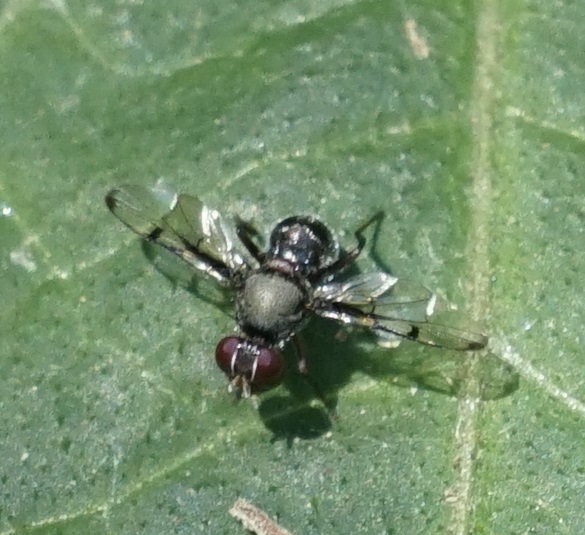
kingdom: Animalia
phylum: Arthropoda
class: Insecta
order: Diptera
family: Platystomatidae
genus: Pogonortalis
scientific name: Pogonortalis doclea
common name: Boatman fly
